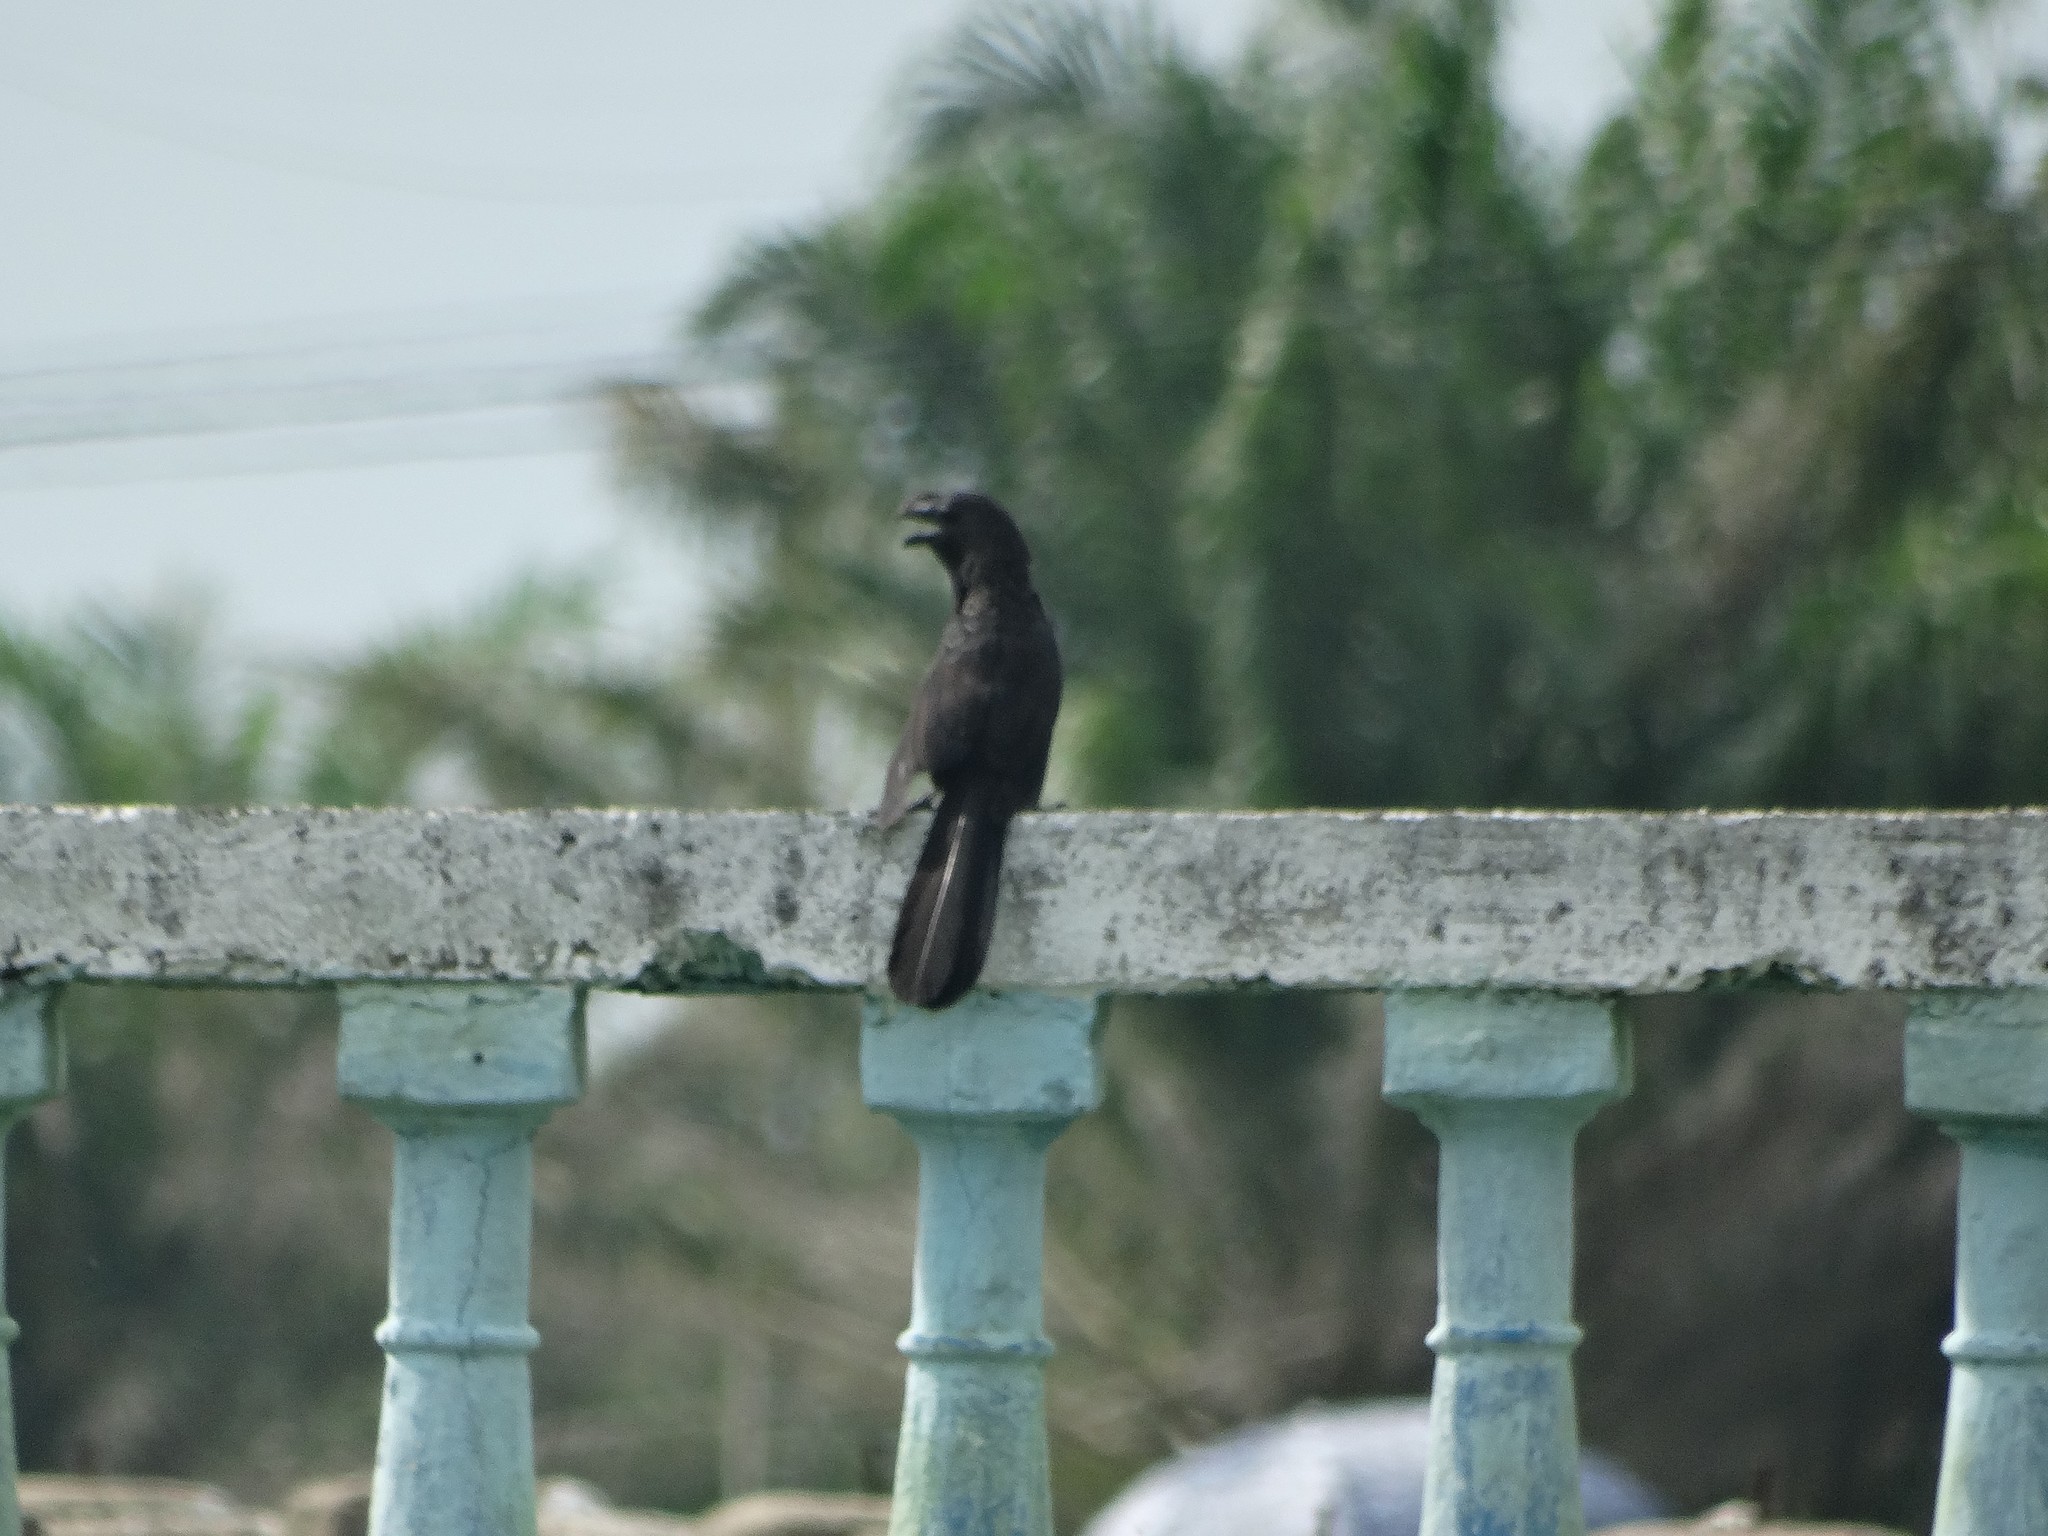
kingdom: Animalia
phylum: Chordata
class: Aves
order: Cuculiformes
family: Cuculidae
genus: Crotophaga
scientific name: Crotophaga ani
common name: Smooth-billed ani
